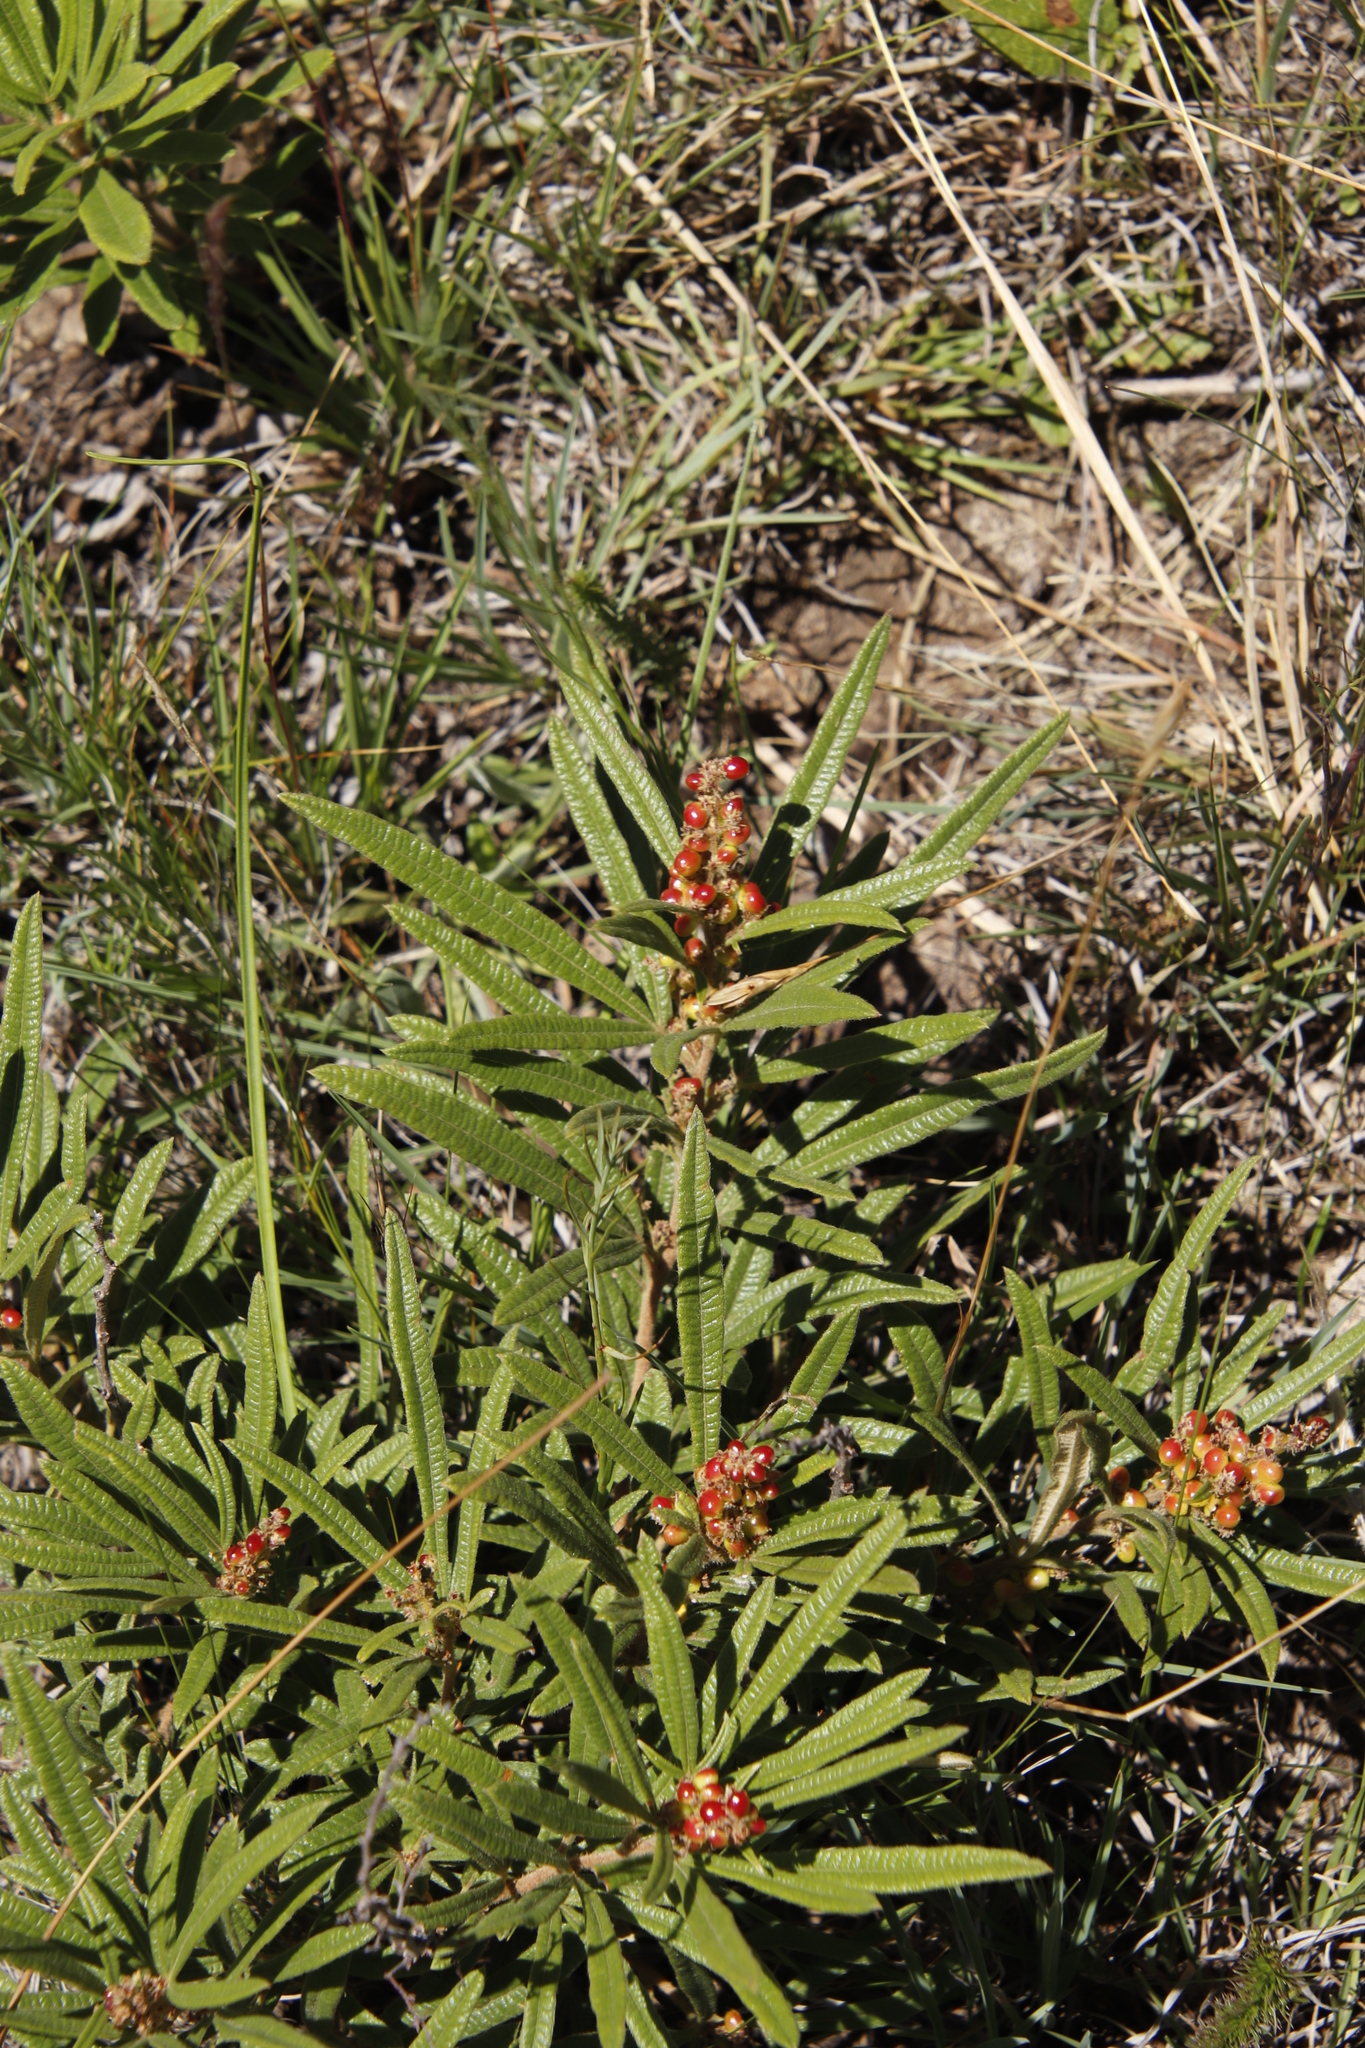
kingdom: Plantae
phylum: Tracheophyta
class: Magnoliopsida
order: Sapindales
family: Anacardiaceae
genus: Searsia
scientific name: Searsia discolor
